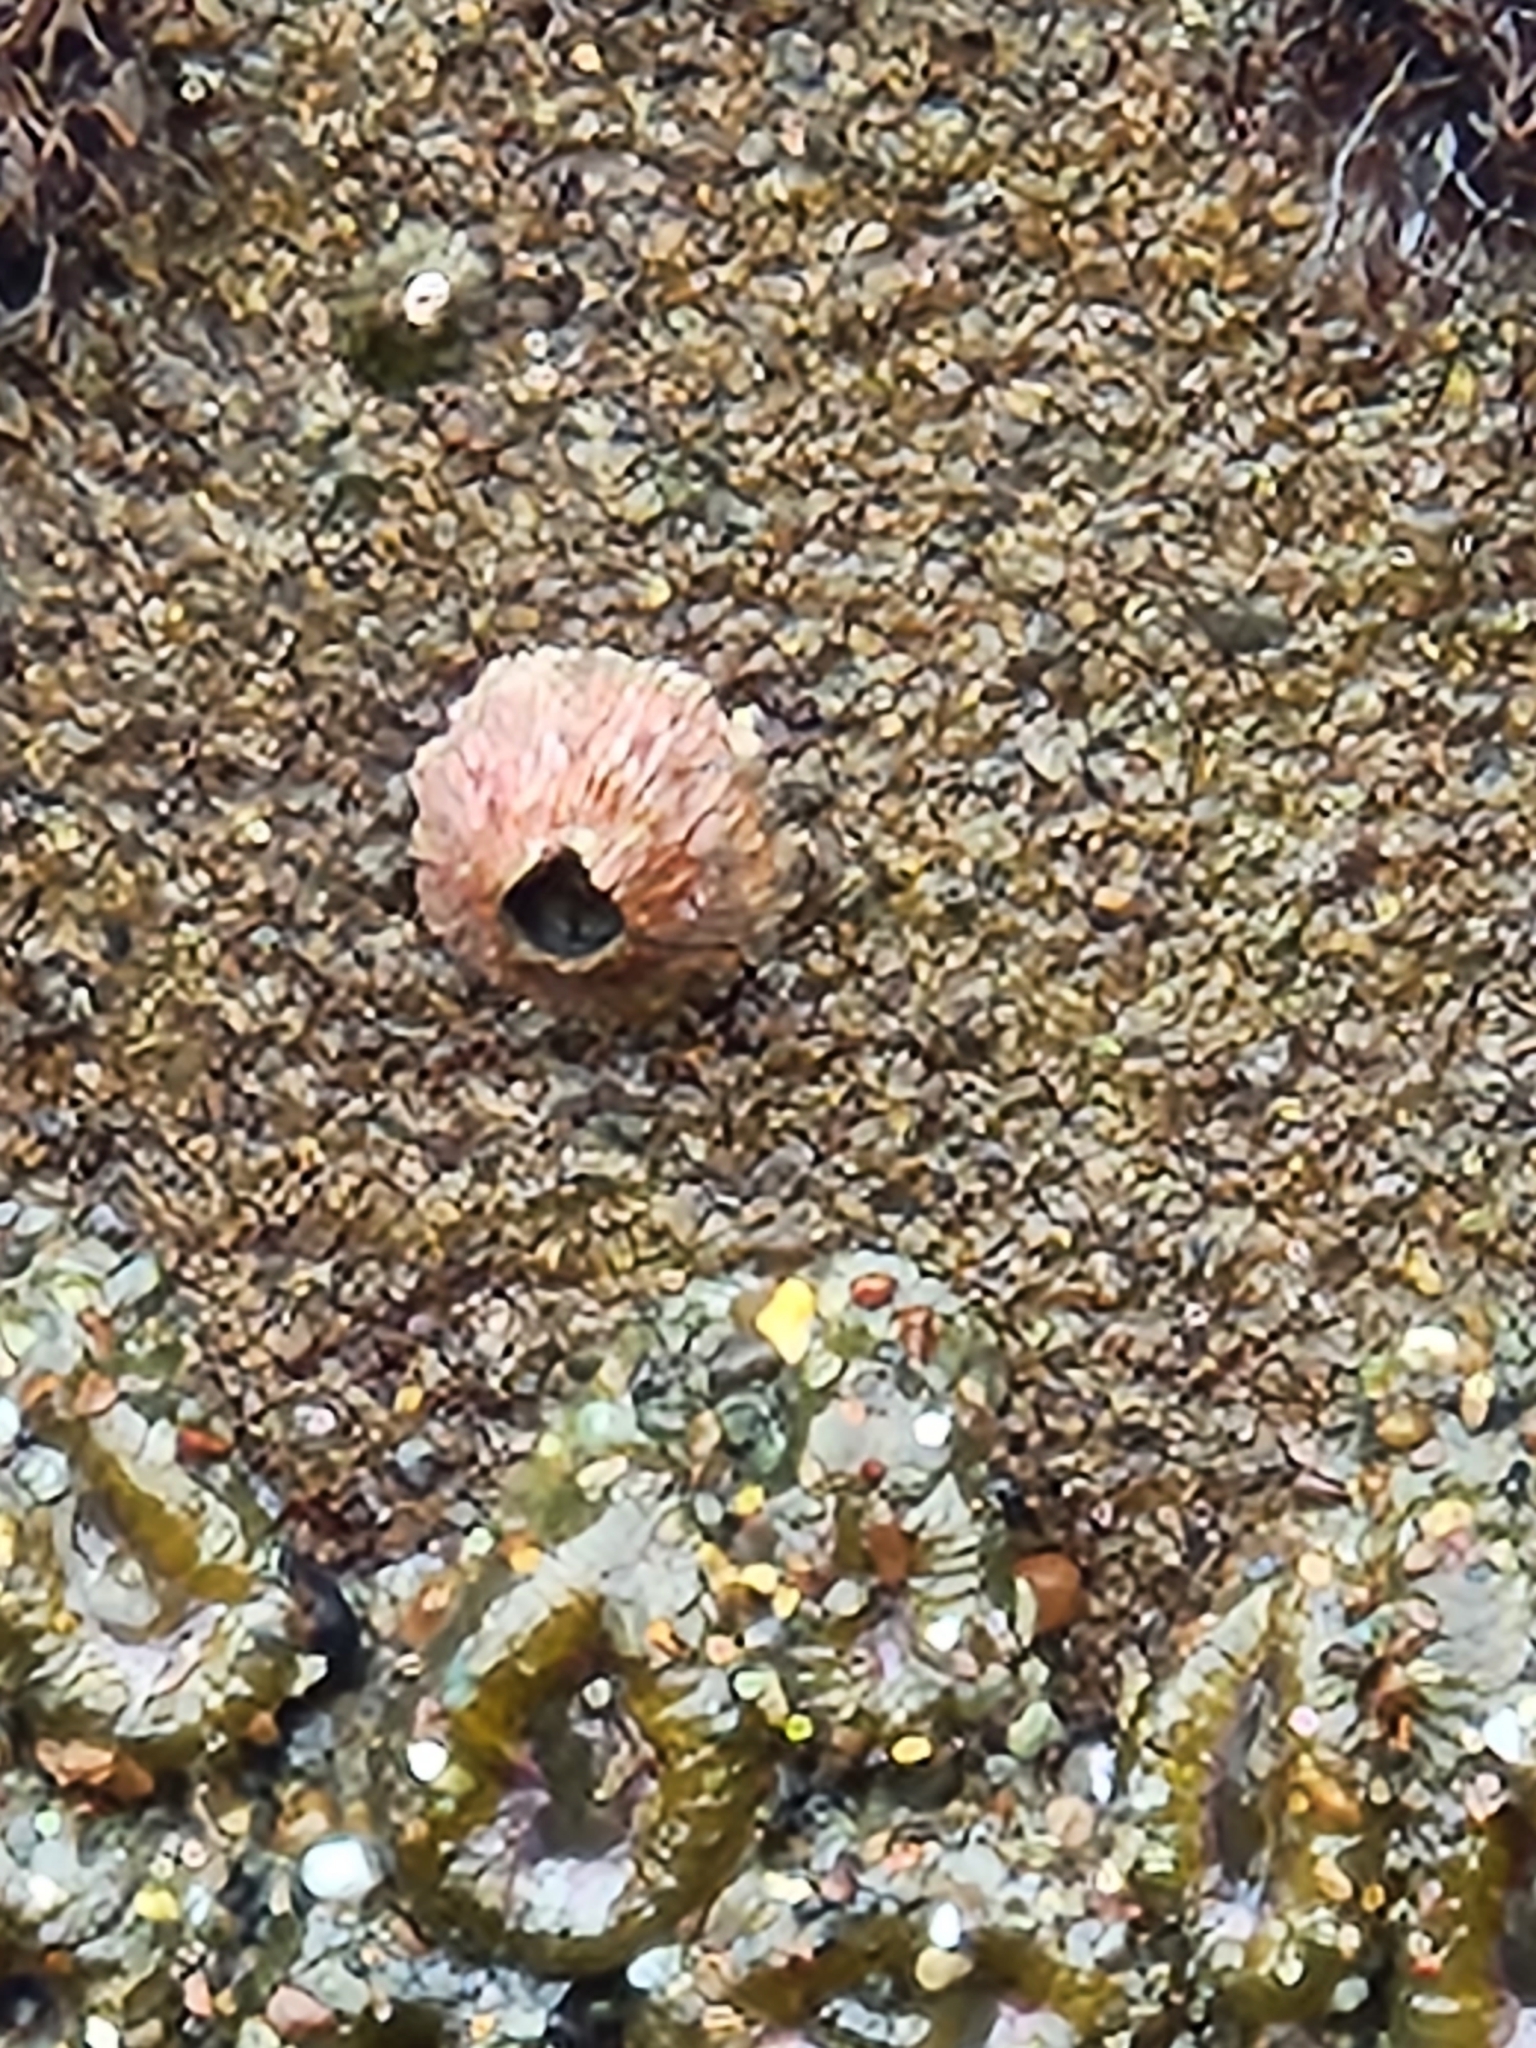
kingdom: Animalia
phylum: Arthropoda
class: Maxillopoda
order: Sessilia
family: Tetraclitidae
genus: Tetraclita
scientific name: Tetraclita rubescens
